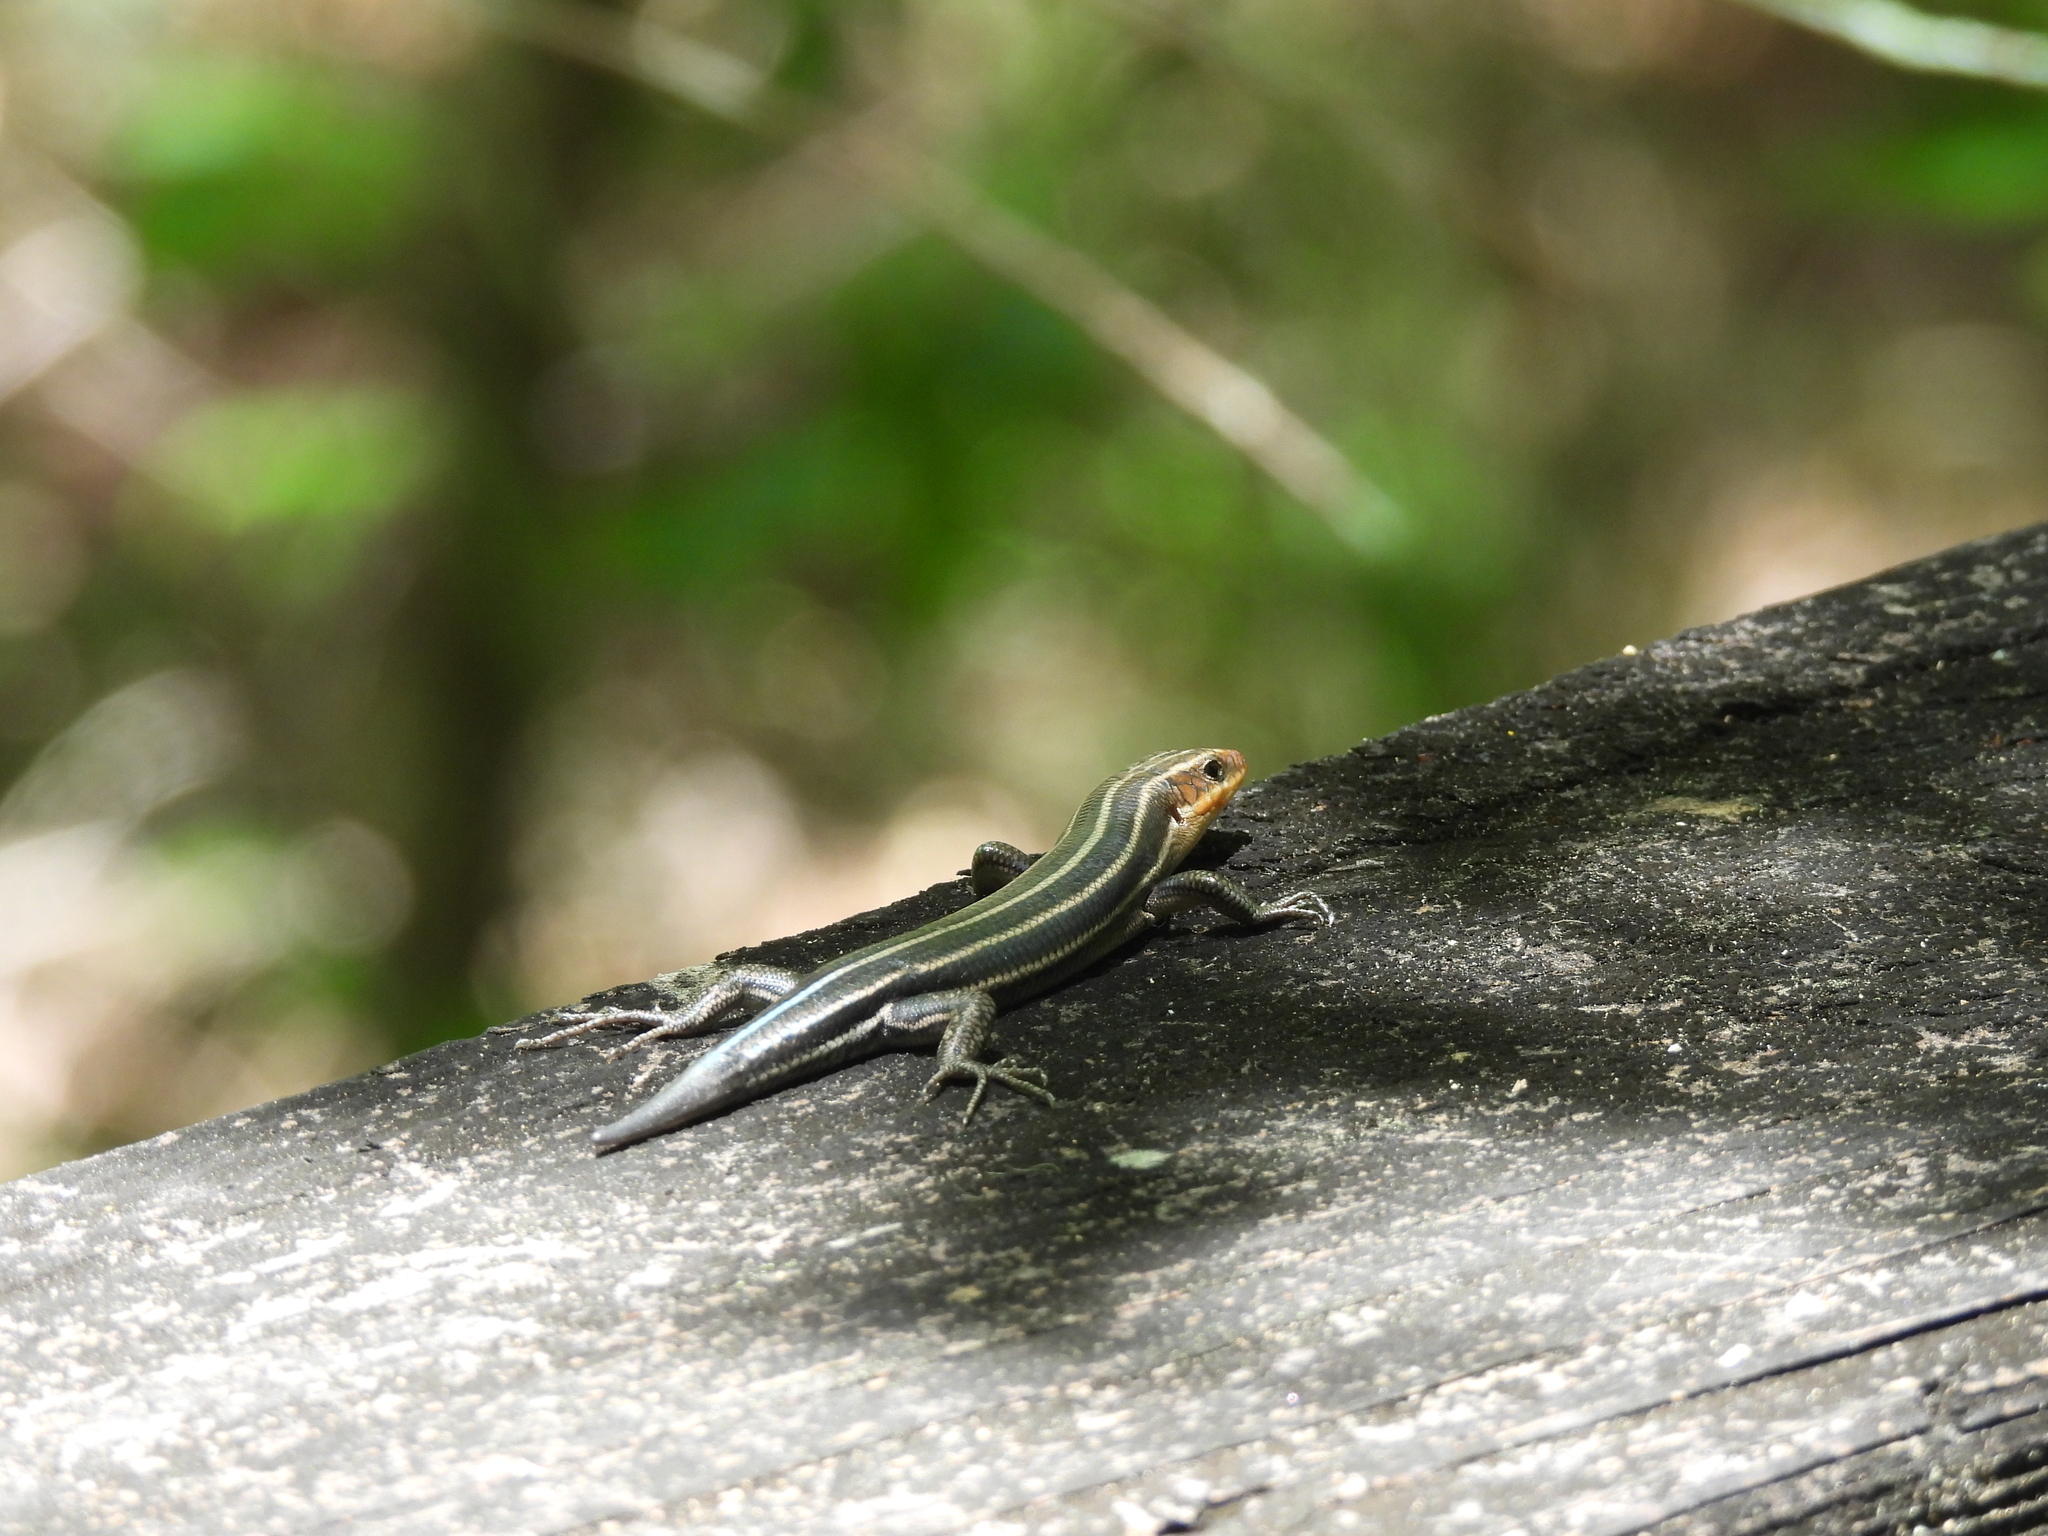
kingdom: Animalia
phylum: Chordata
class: Squamata
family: Scincidae
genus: Plestiodon
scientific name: Plestiodon fasciatus
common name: Five-lined skink
